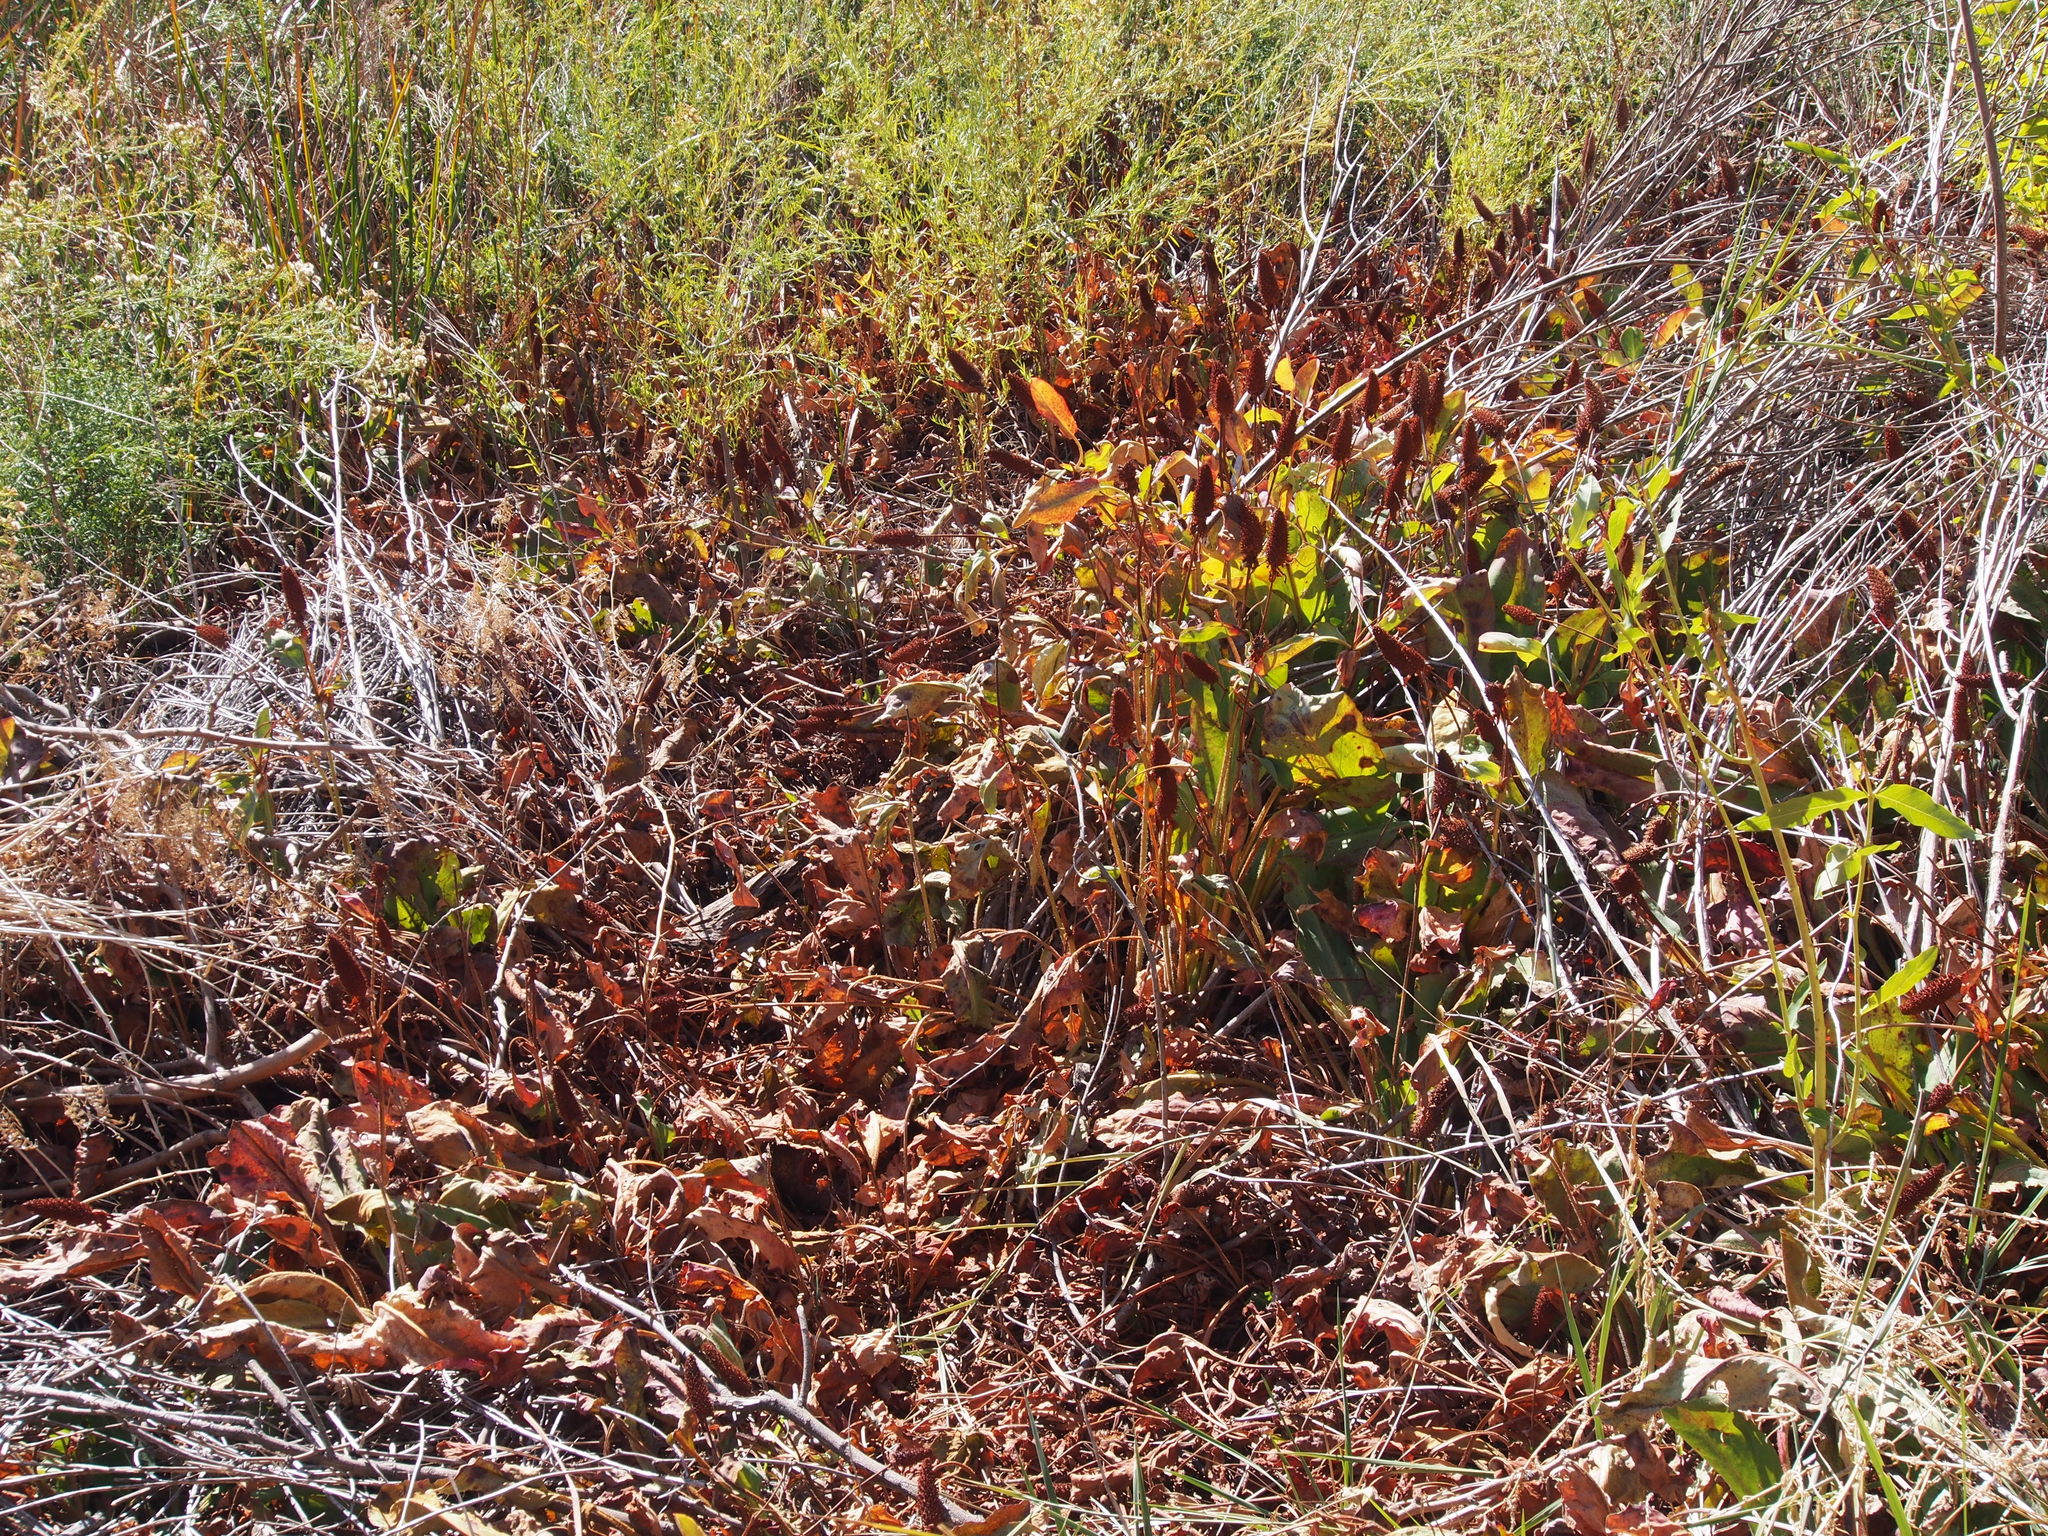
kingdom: Plantae
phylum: Tracheophyta
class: Magnoliopsida
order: Piperales
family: Saururaceae
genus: Anemopsis
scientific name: Anemopsis californica
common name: Apache-beads
